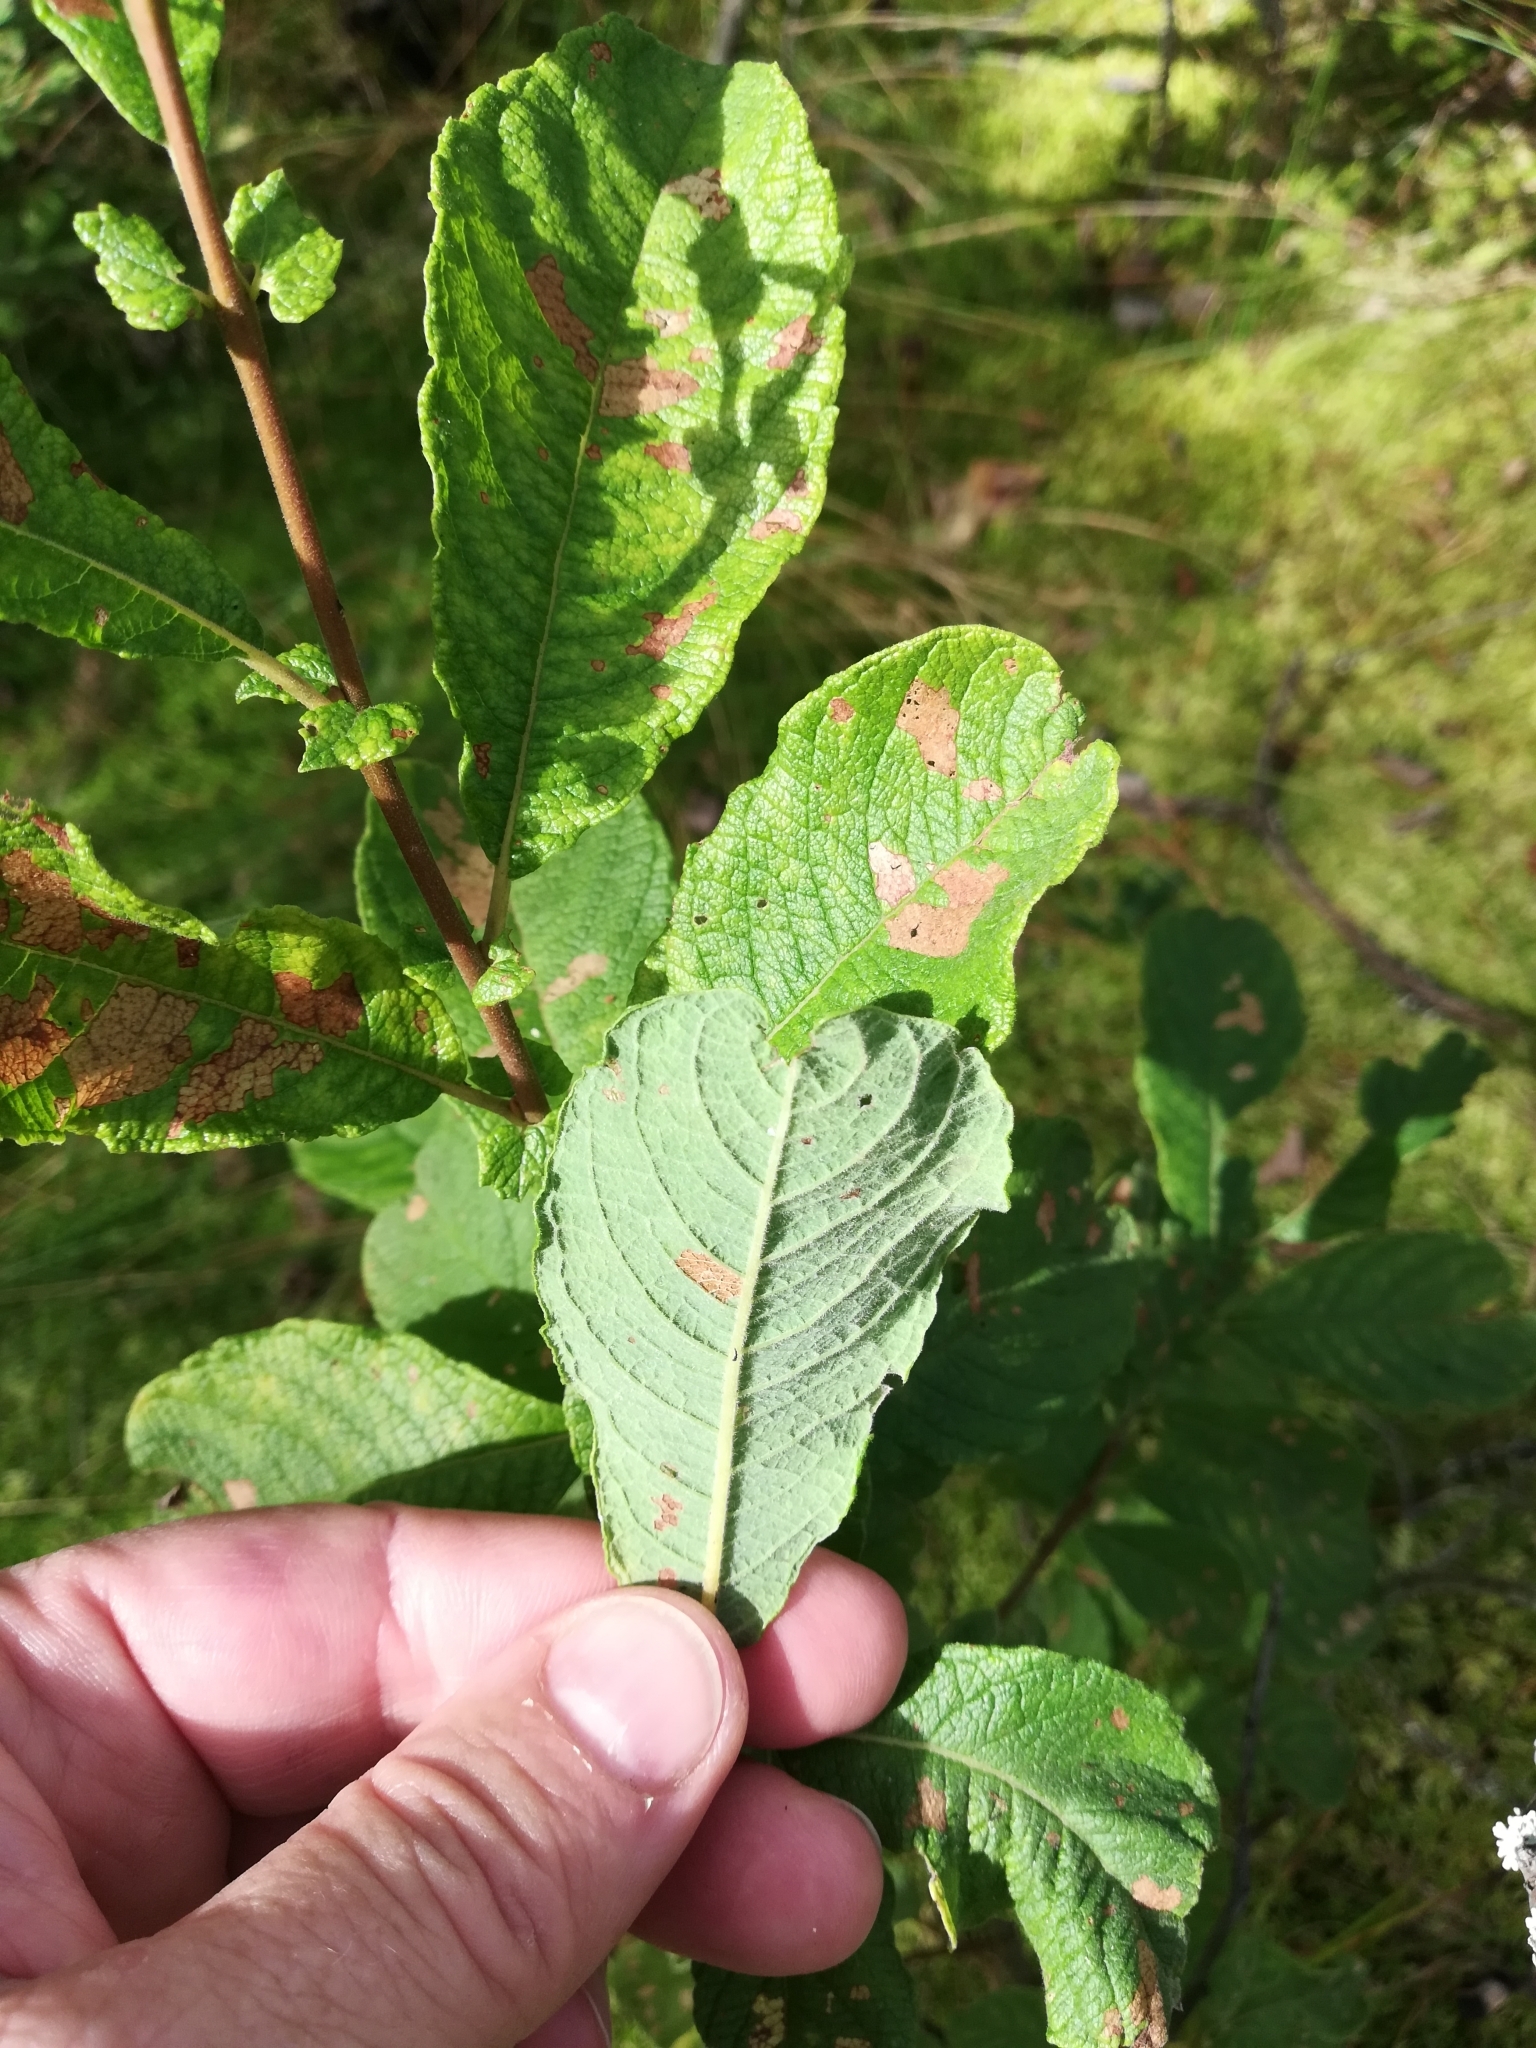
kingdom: Plantae
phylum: Tracheophyta
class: Magnoliopsida
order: Malpighiales
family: Salicaceae
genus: Salix
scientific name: Salix aurita
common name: Eared willow
